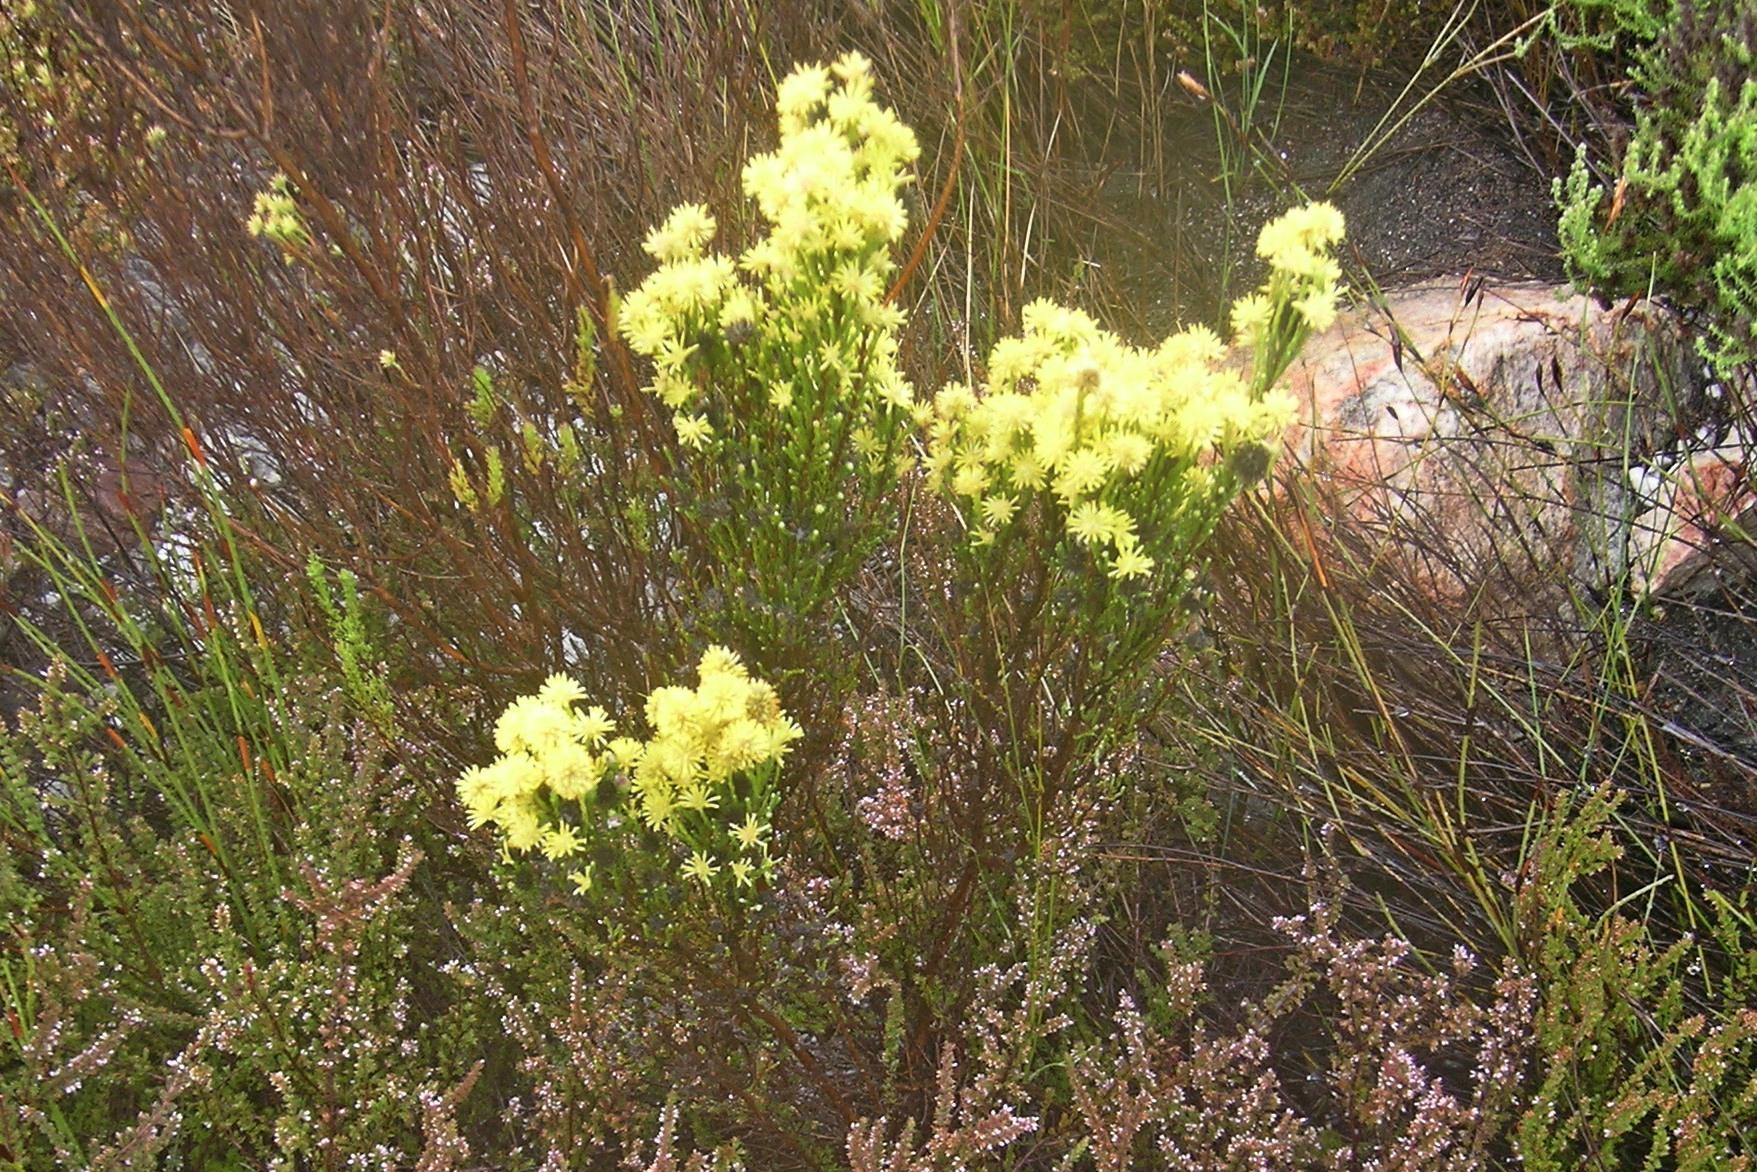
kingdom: Plantae
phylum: Tracheophyta
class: Magnoliopsida
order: Asterales
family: Asteraceae
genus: Seriphium
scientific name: Seriphium spirale
